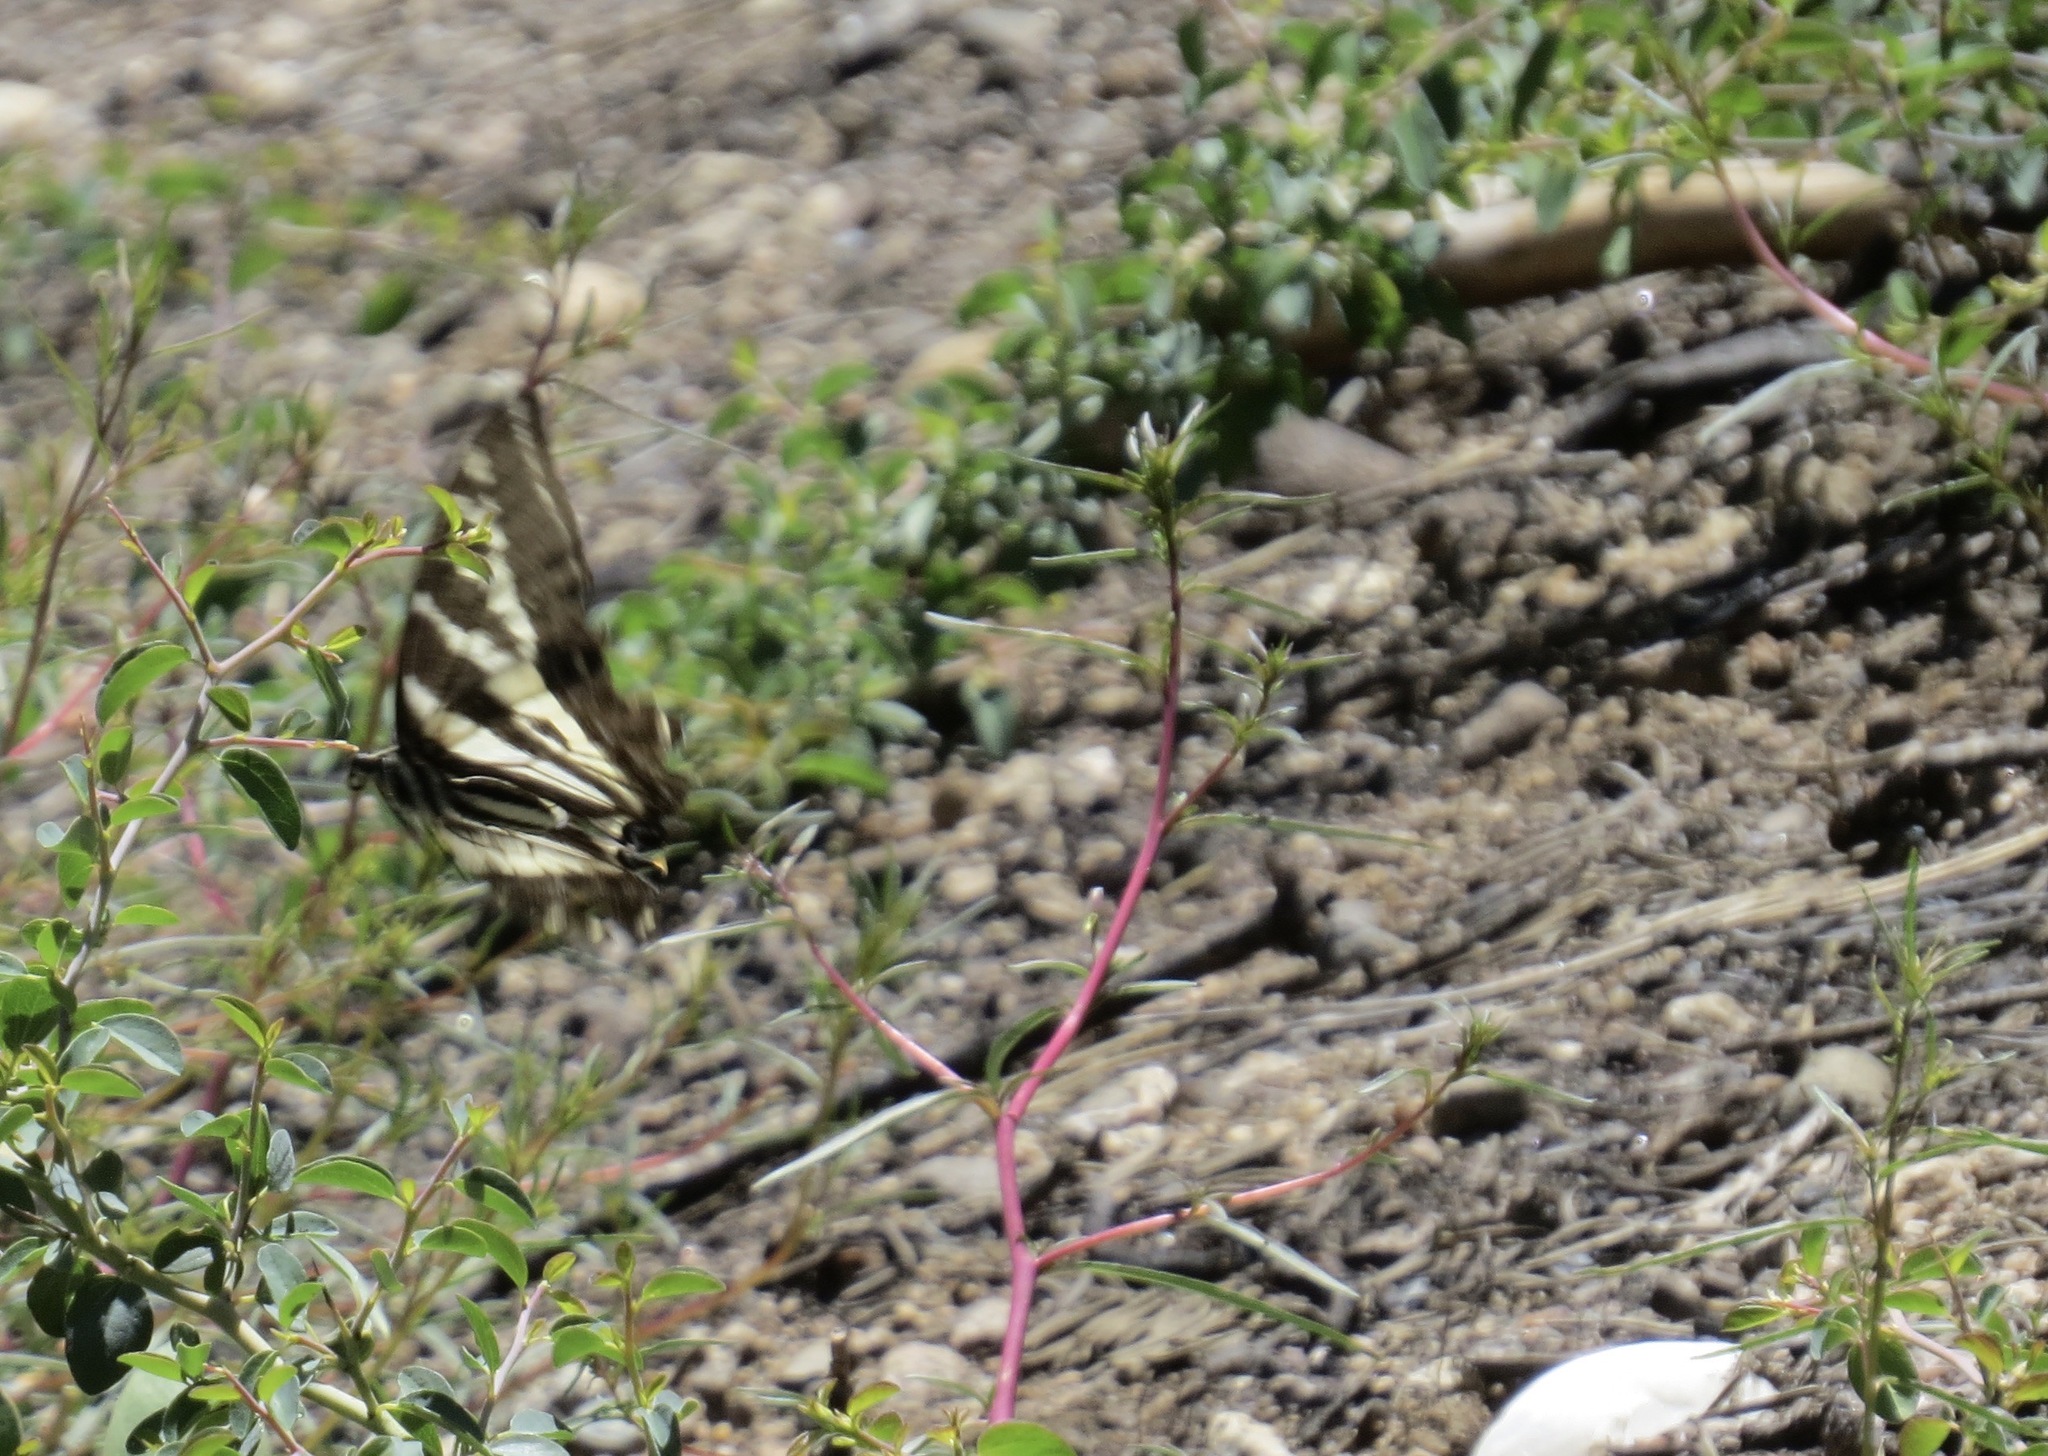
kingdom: Animalia
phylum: Arthropoda
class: Insecta
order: Lepidoptera
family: Papilionidae
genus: Papilio
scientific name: Papilio eurymedon
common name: Pale tiger swallowtail
